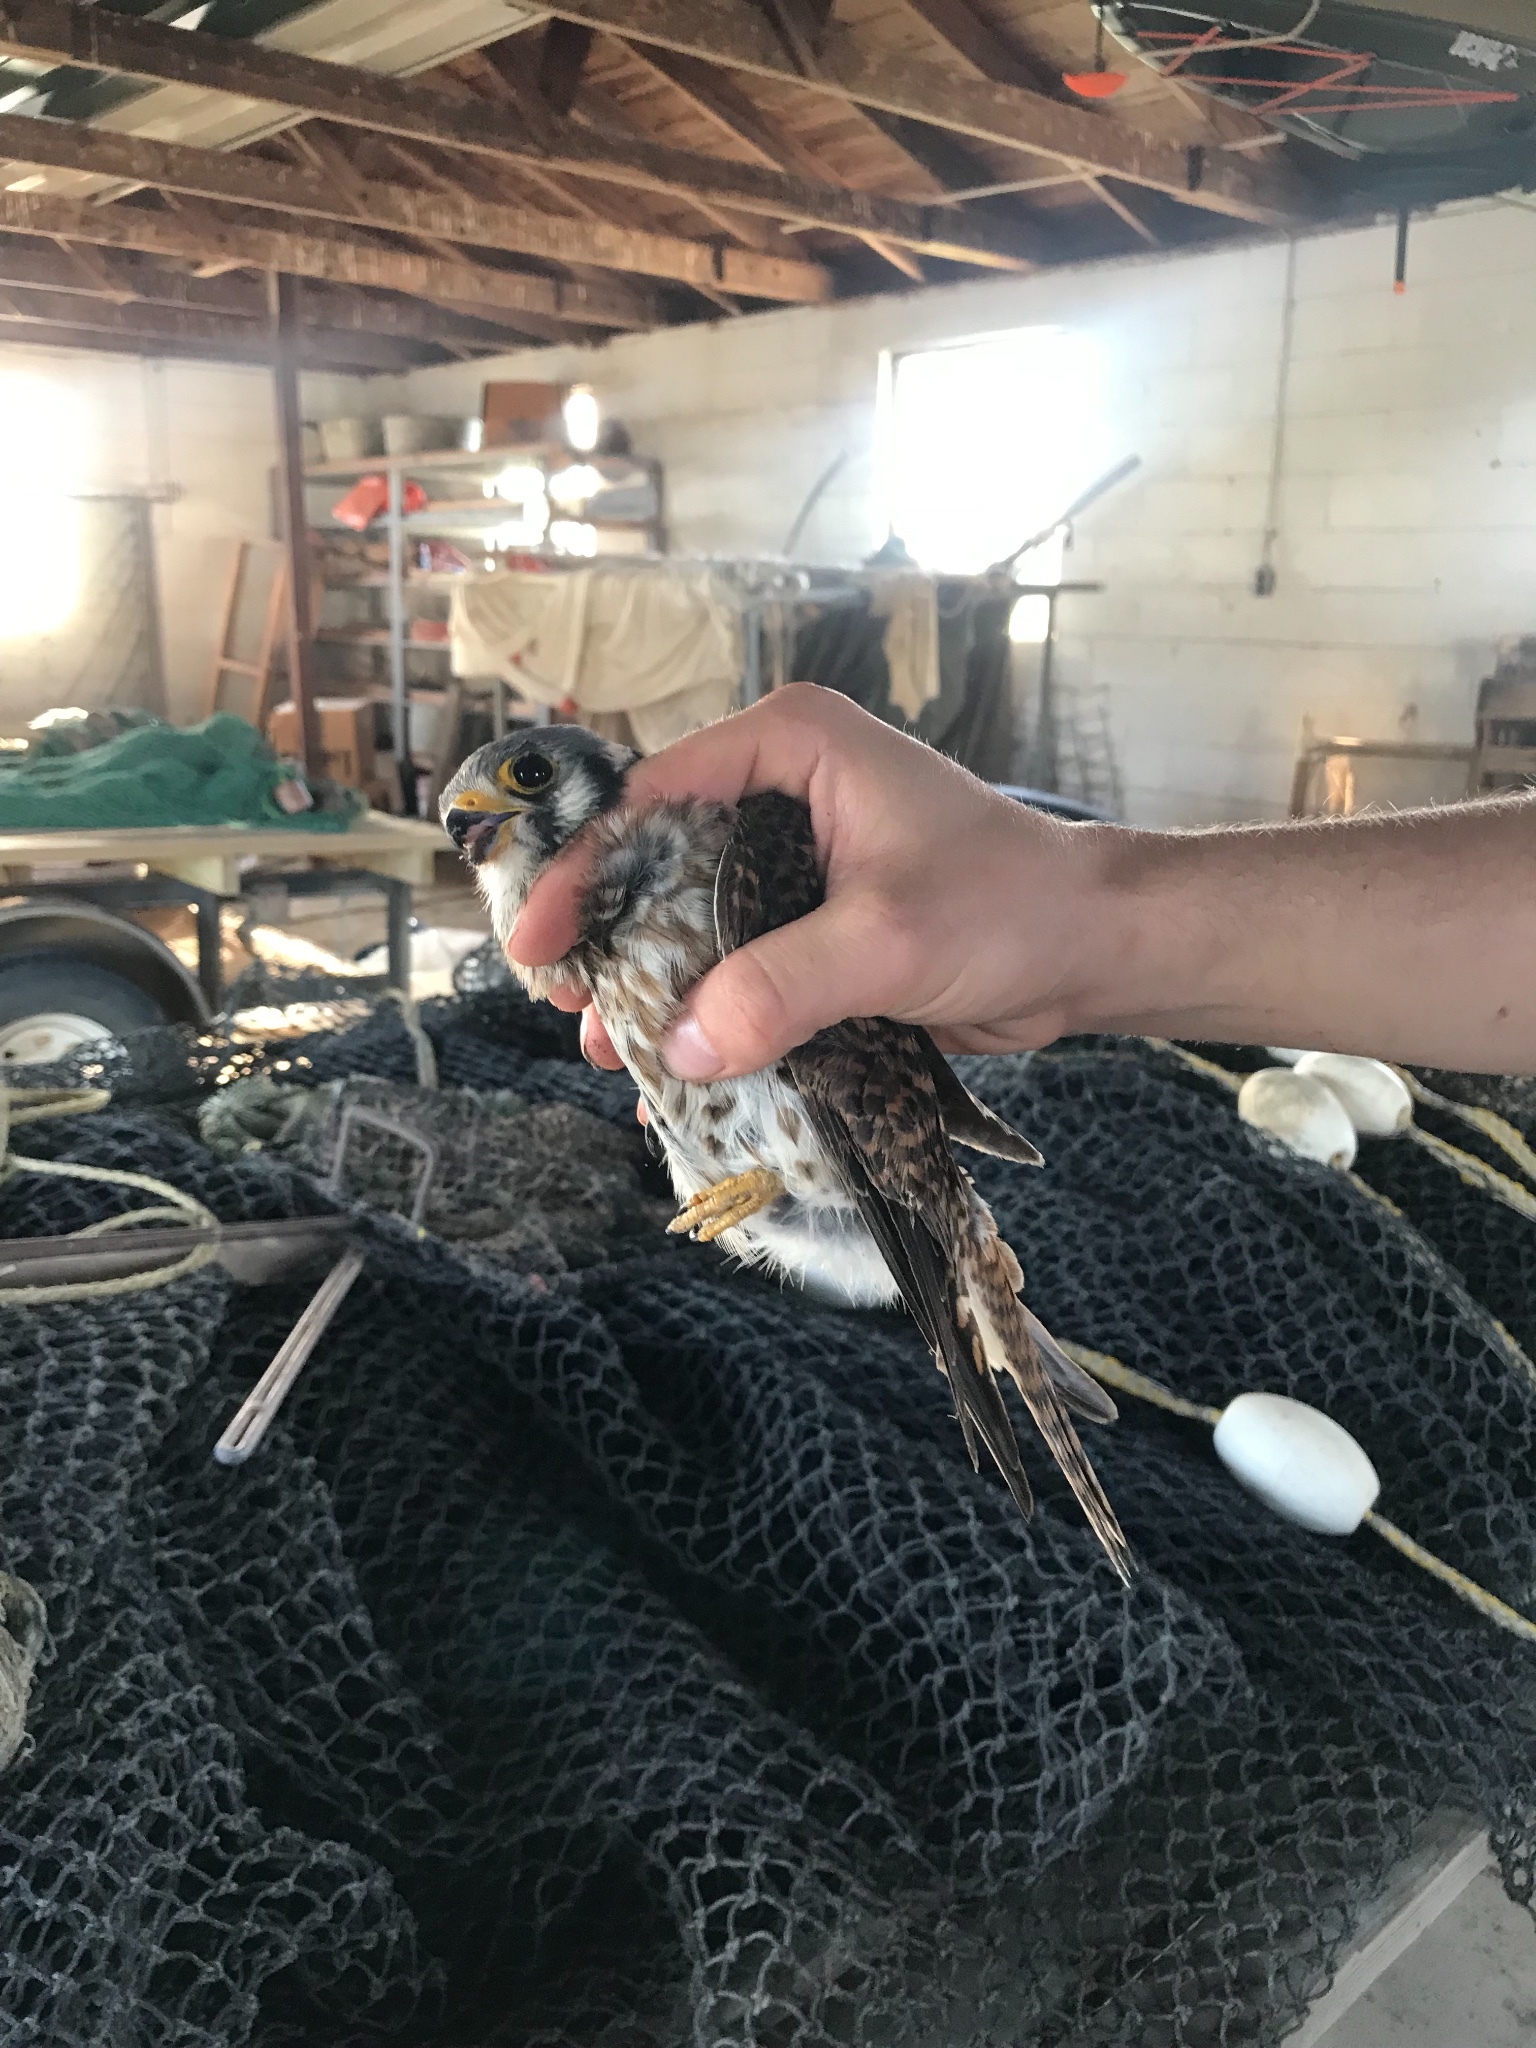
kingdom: Animalia
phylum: Chordata
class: Aves
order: Falconiformes
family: Falconidae
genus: Falco
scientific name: Falco sparverius
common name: American kestrel
